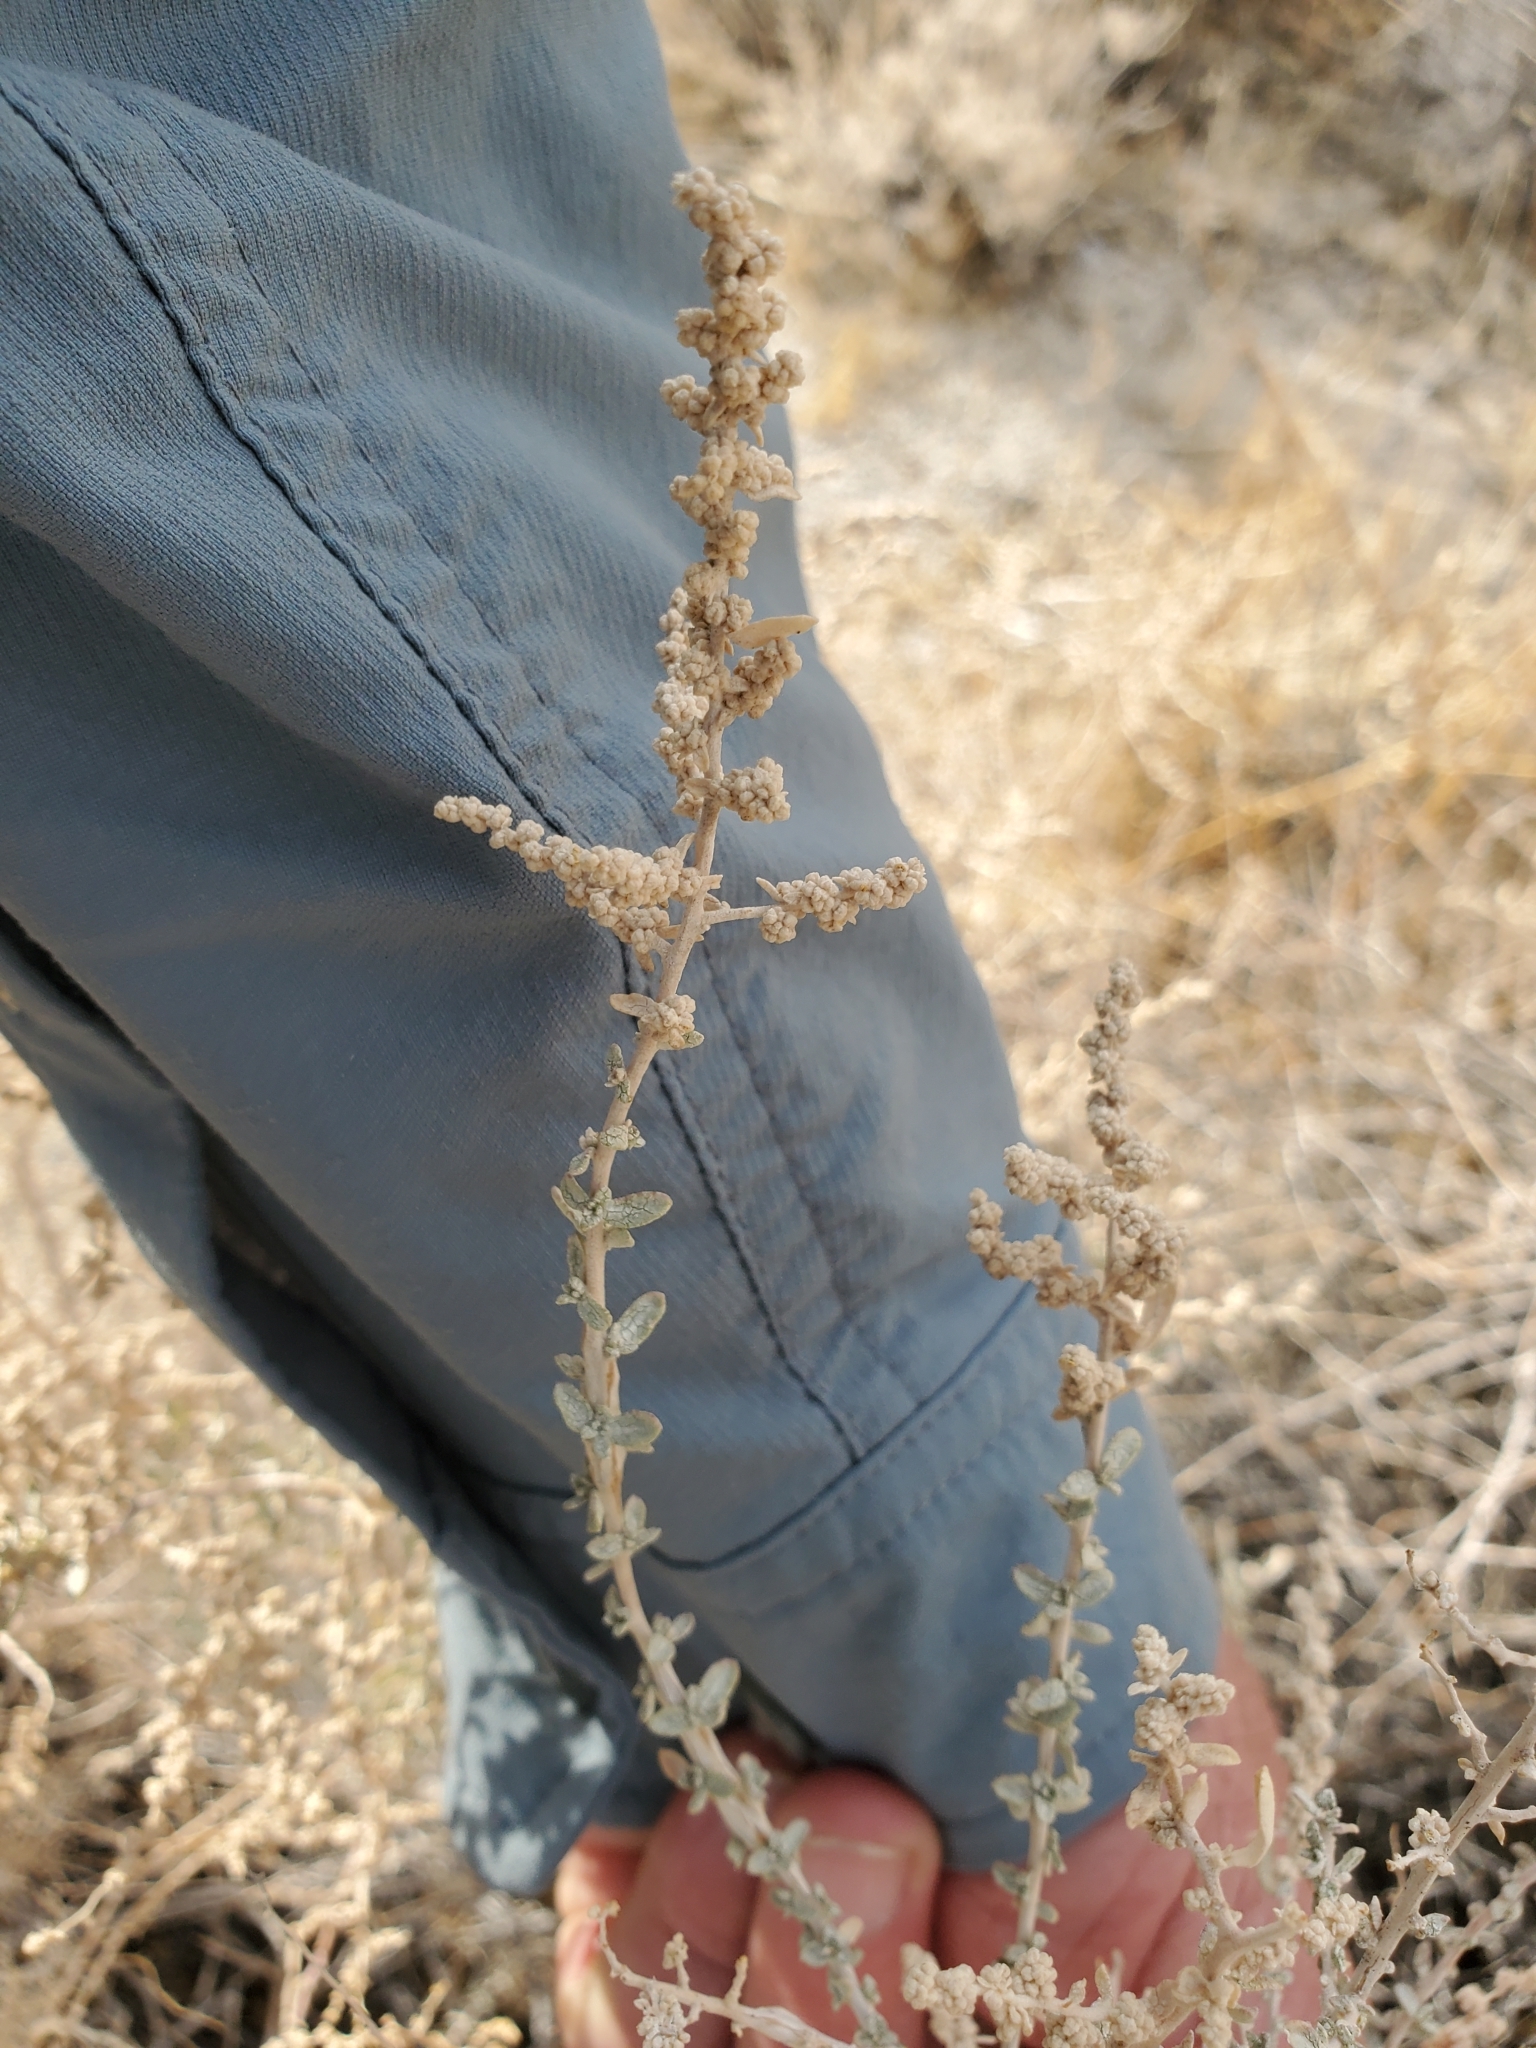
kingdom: Plantae
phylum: Tracheophyta
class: Magnoliopsida
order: Caryophyllales
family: Amaranthaceae
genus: Atriplex
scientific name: Atriplex polycarpa
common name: Desert saltbush
